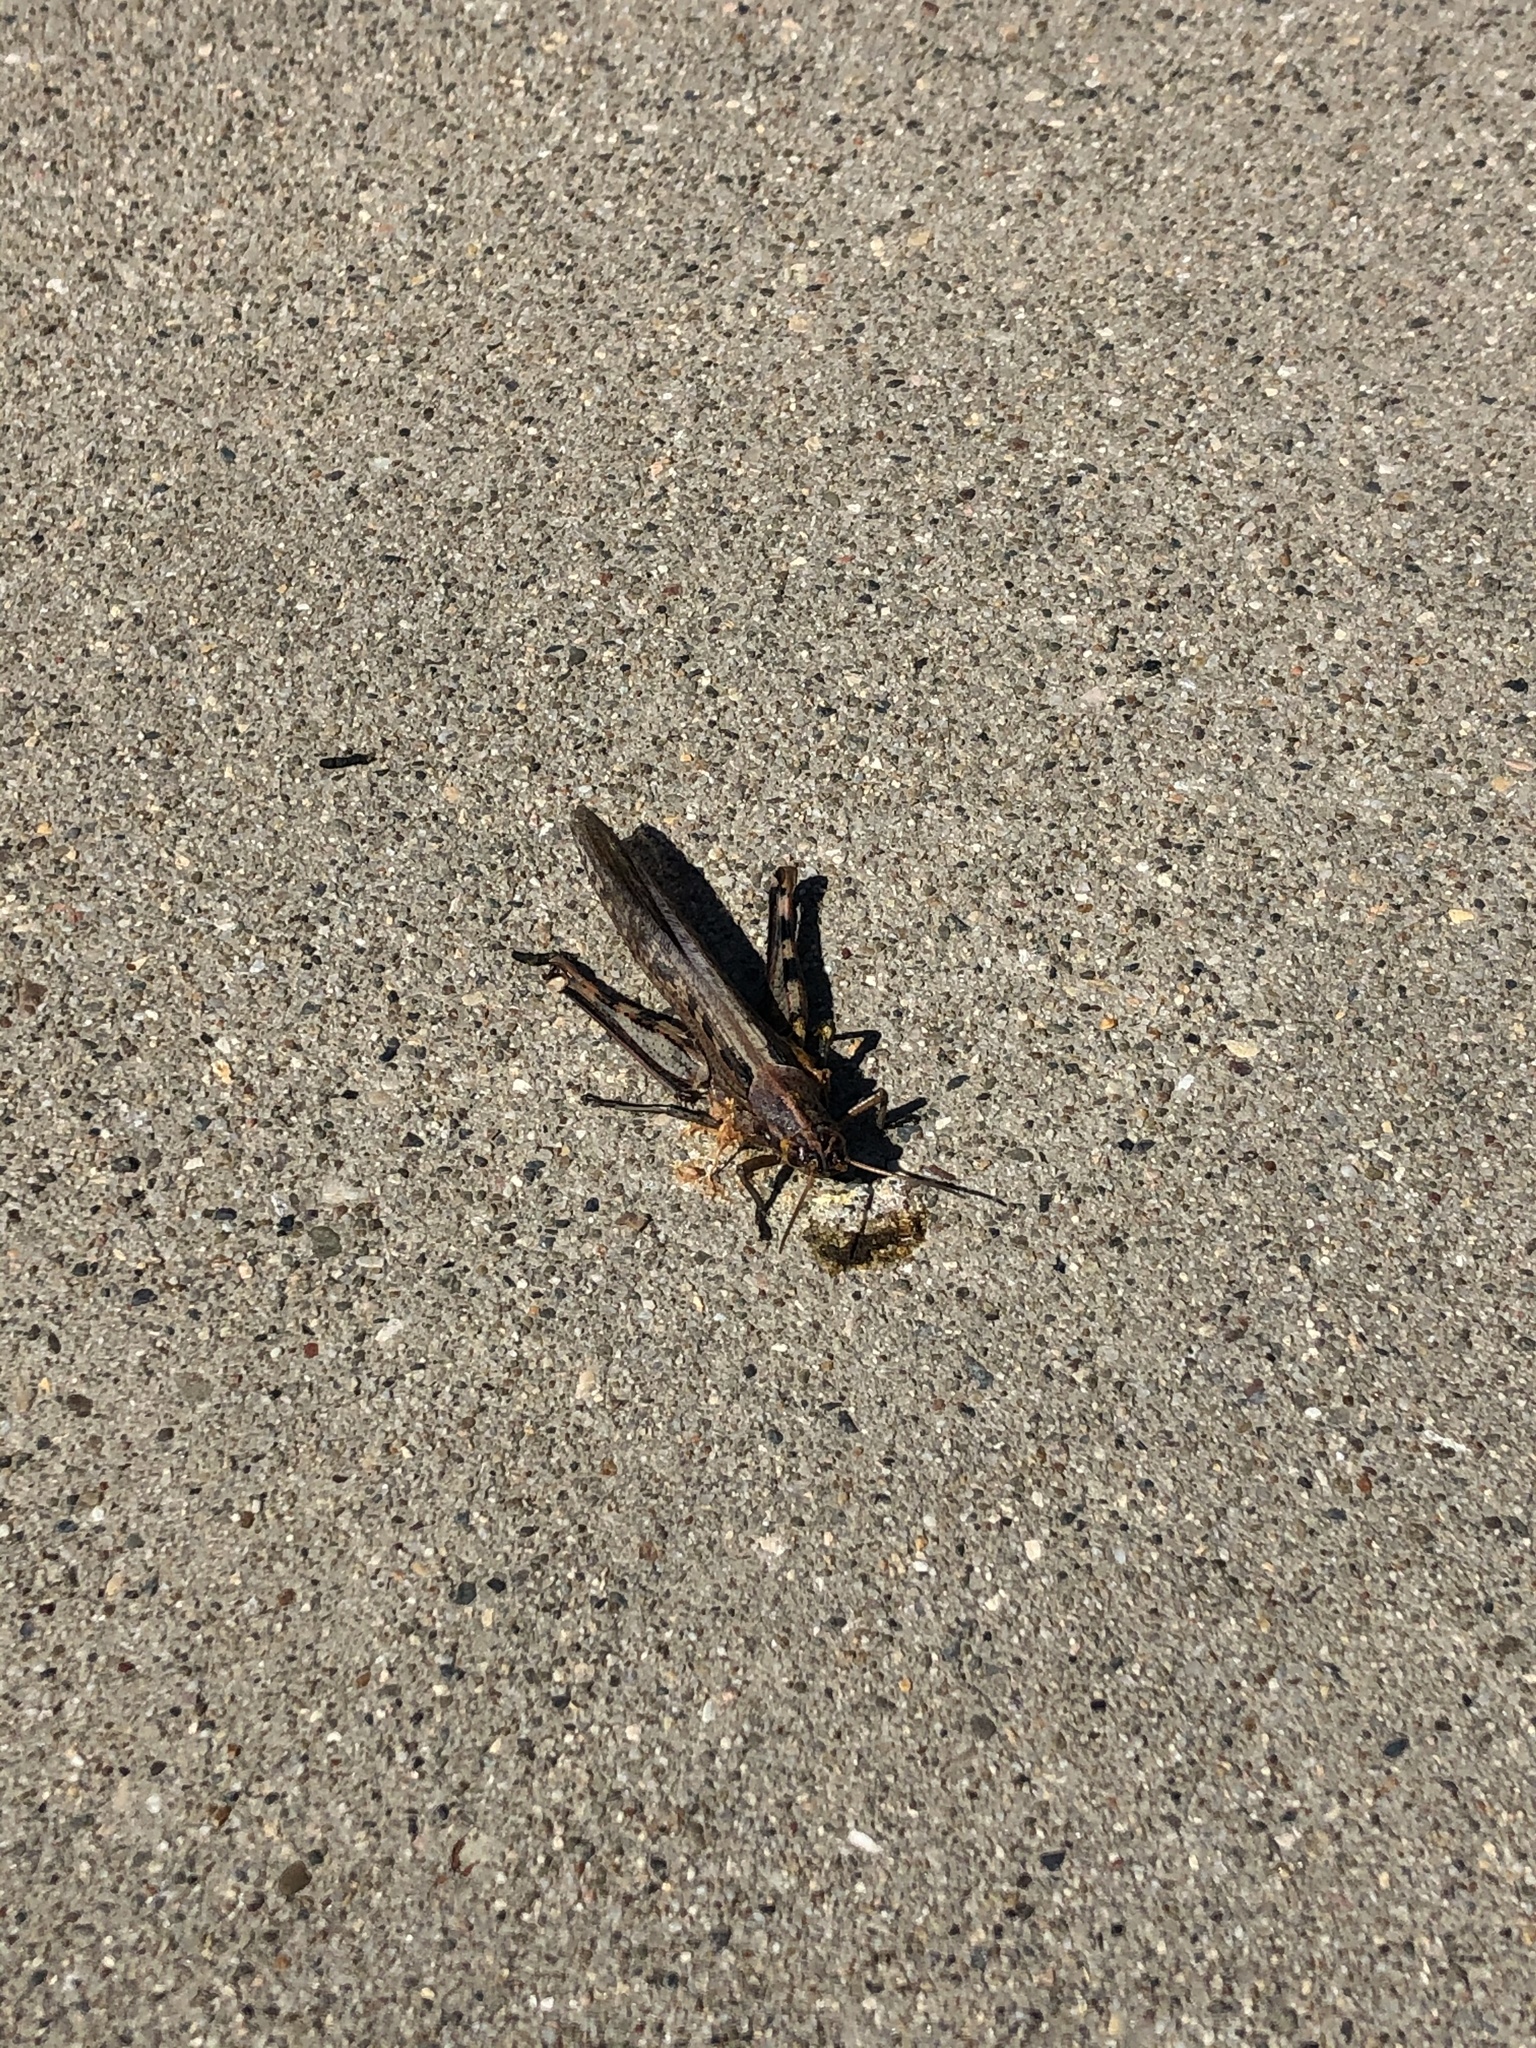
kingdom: Animalia
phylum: Arthropoda
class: Insecta
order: Orthoptera
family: Acrididae
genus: Schistocerca
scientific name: Schistocerca nitens
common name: Vagrant grasshopper
